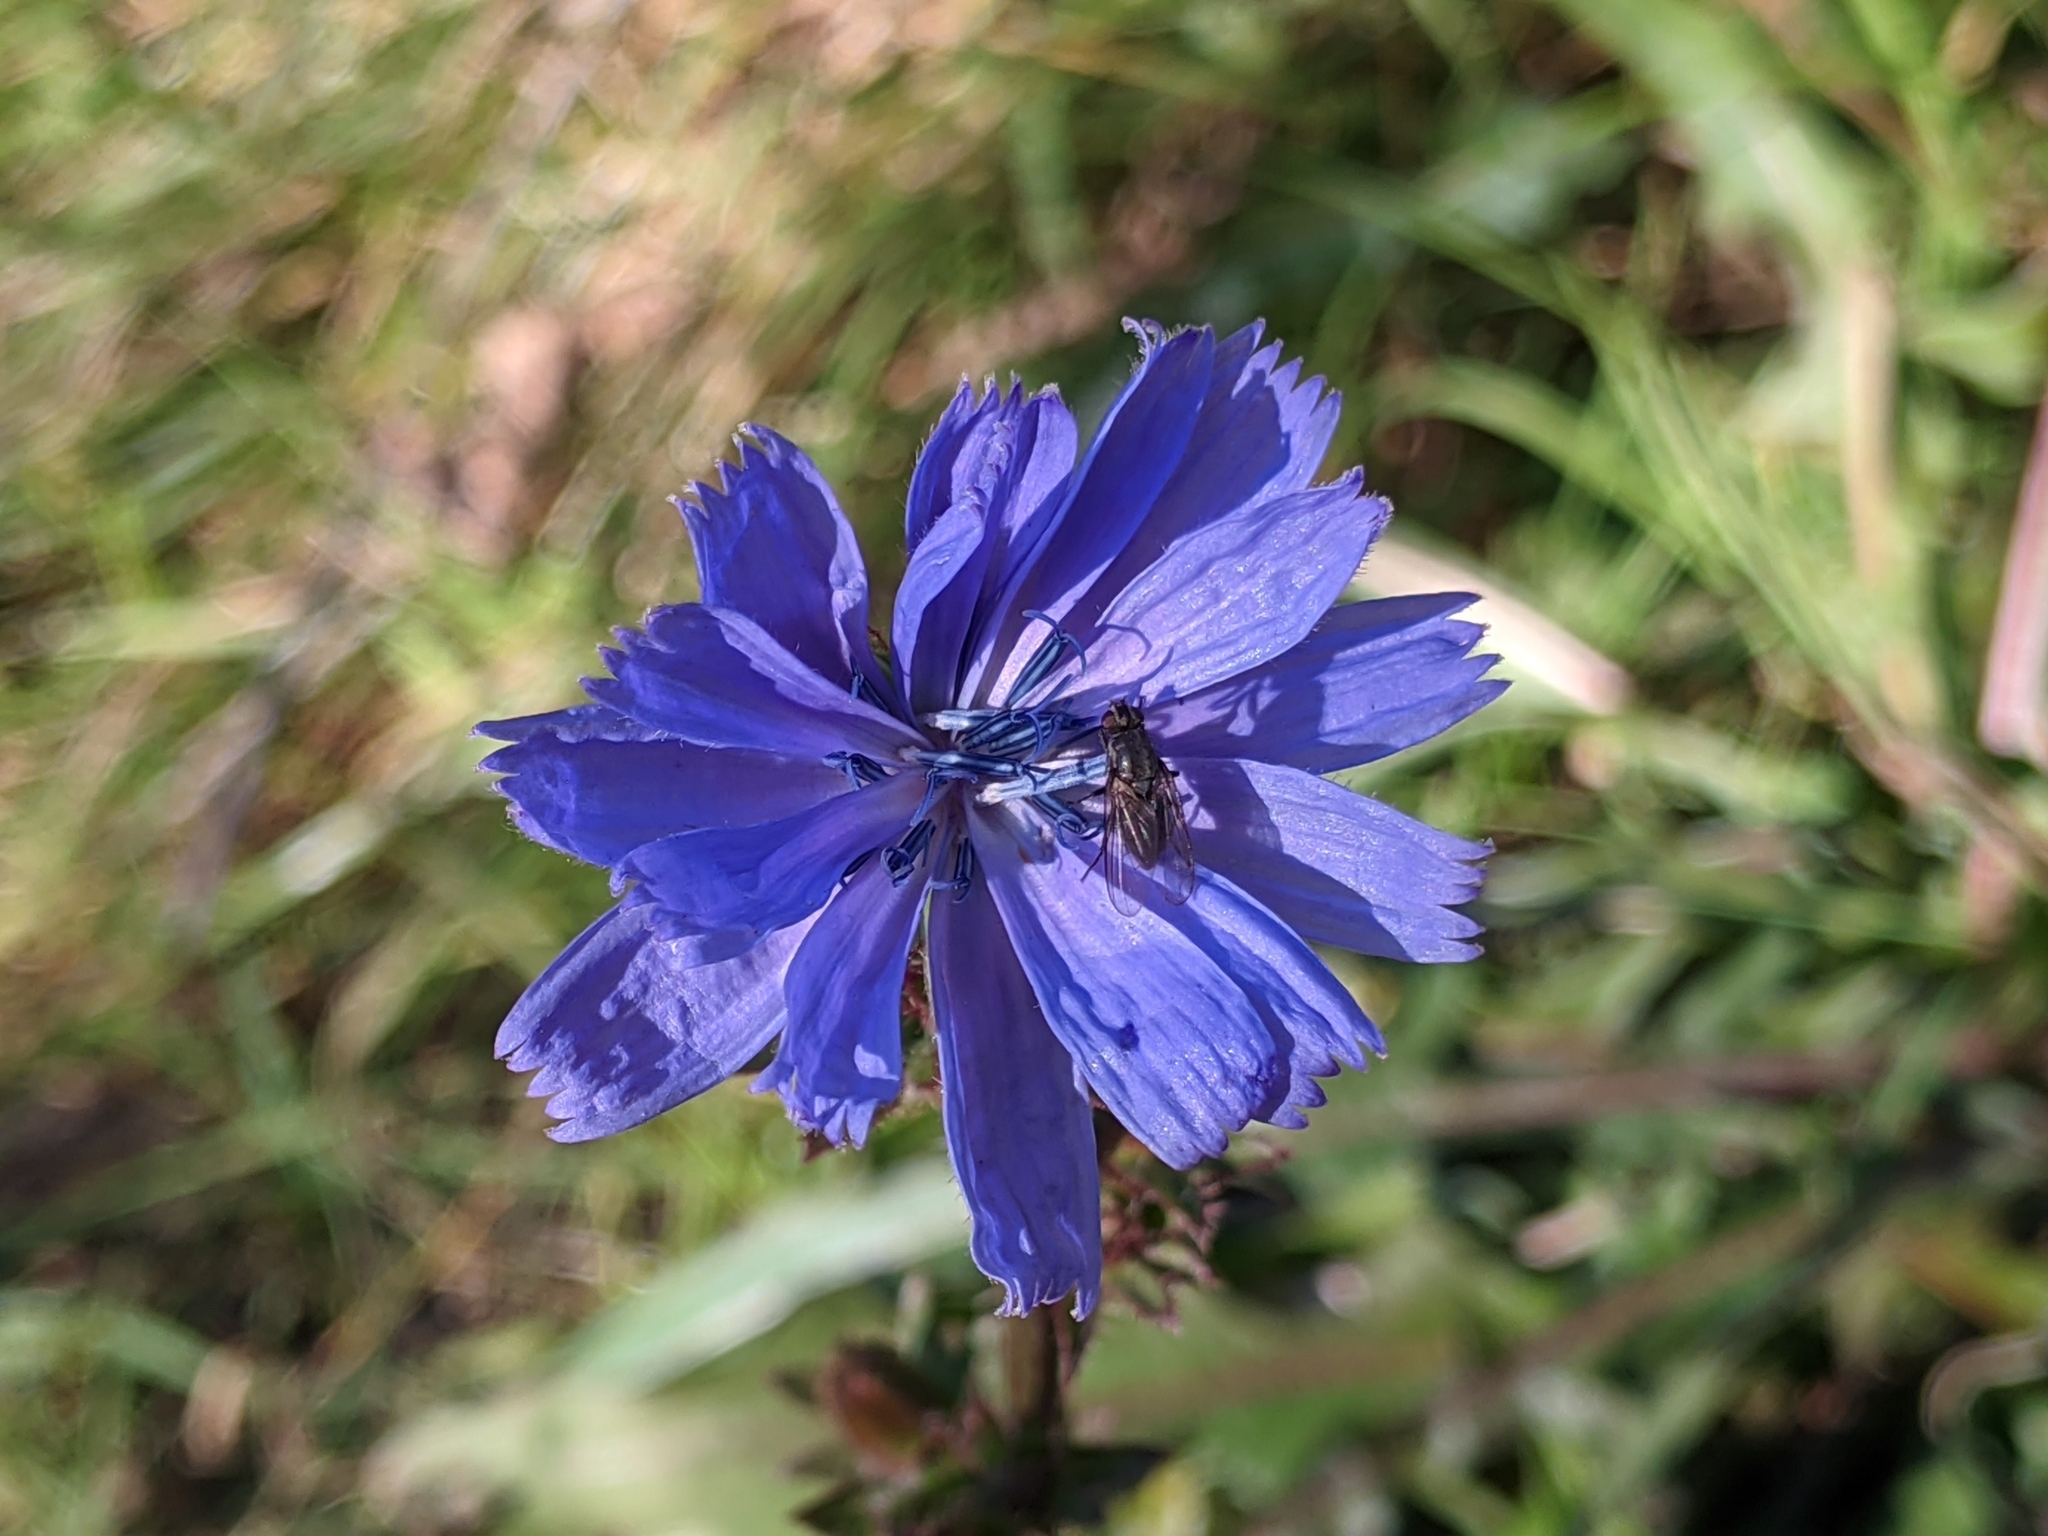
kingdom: Plantae
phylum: Tracheophyta
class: Magnoliopsida
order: Asterales
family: Asteraceae
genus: Cichorium
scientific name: Cichorium intybus
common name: Chicory
